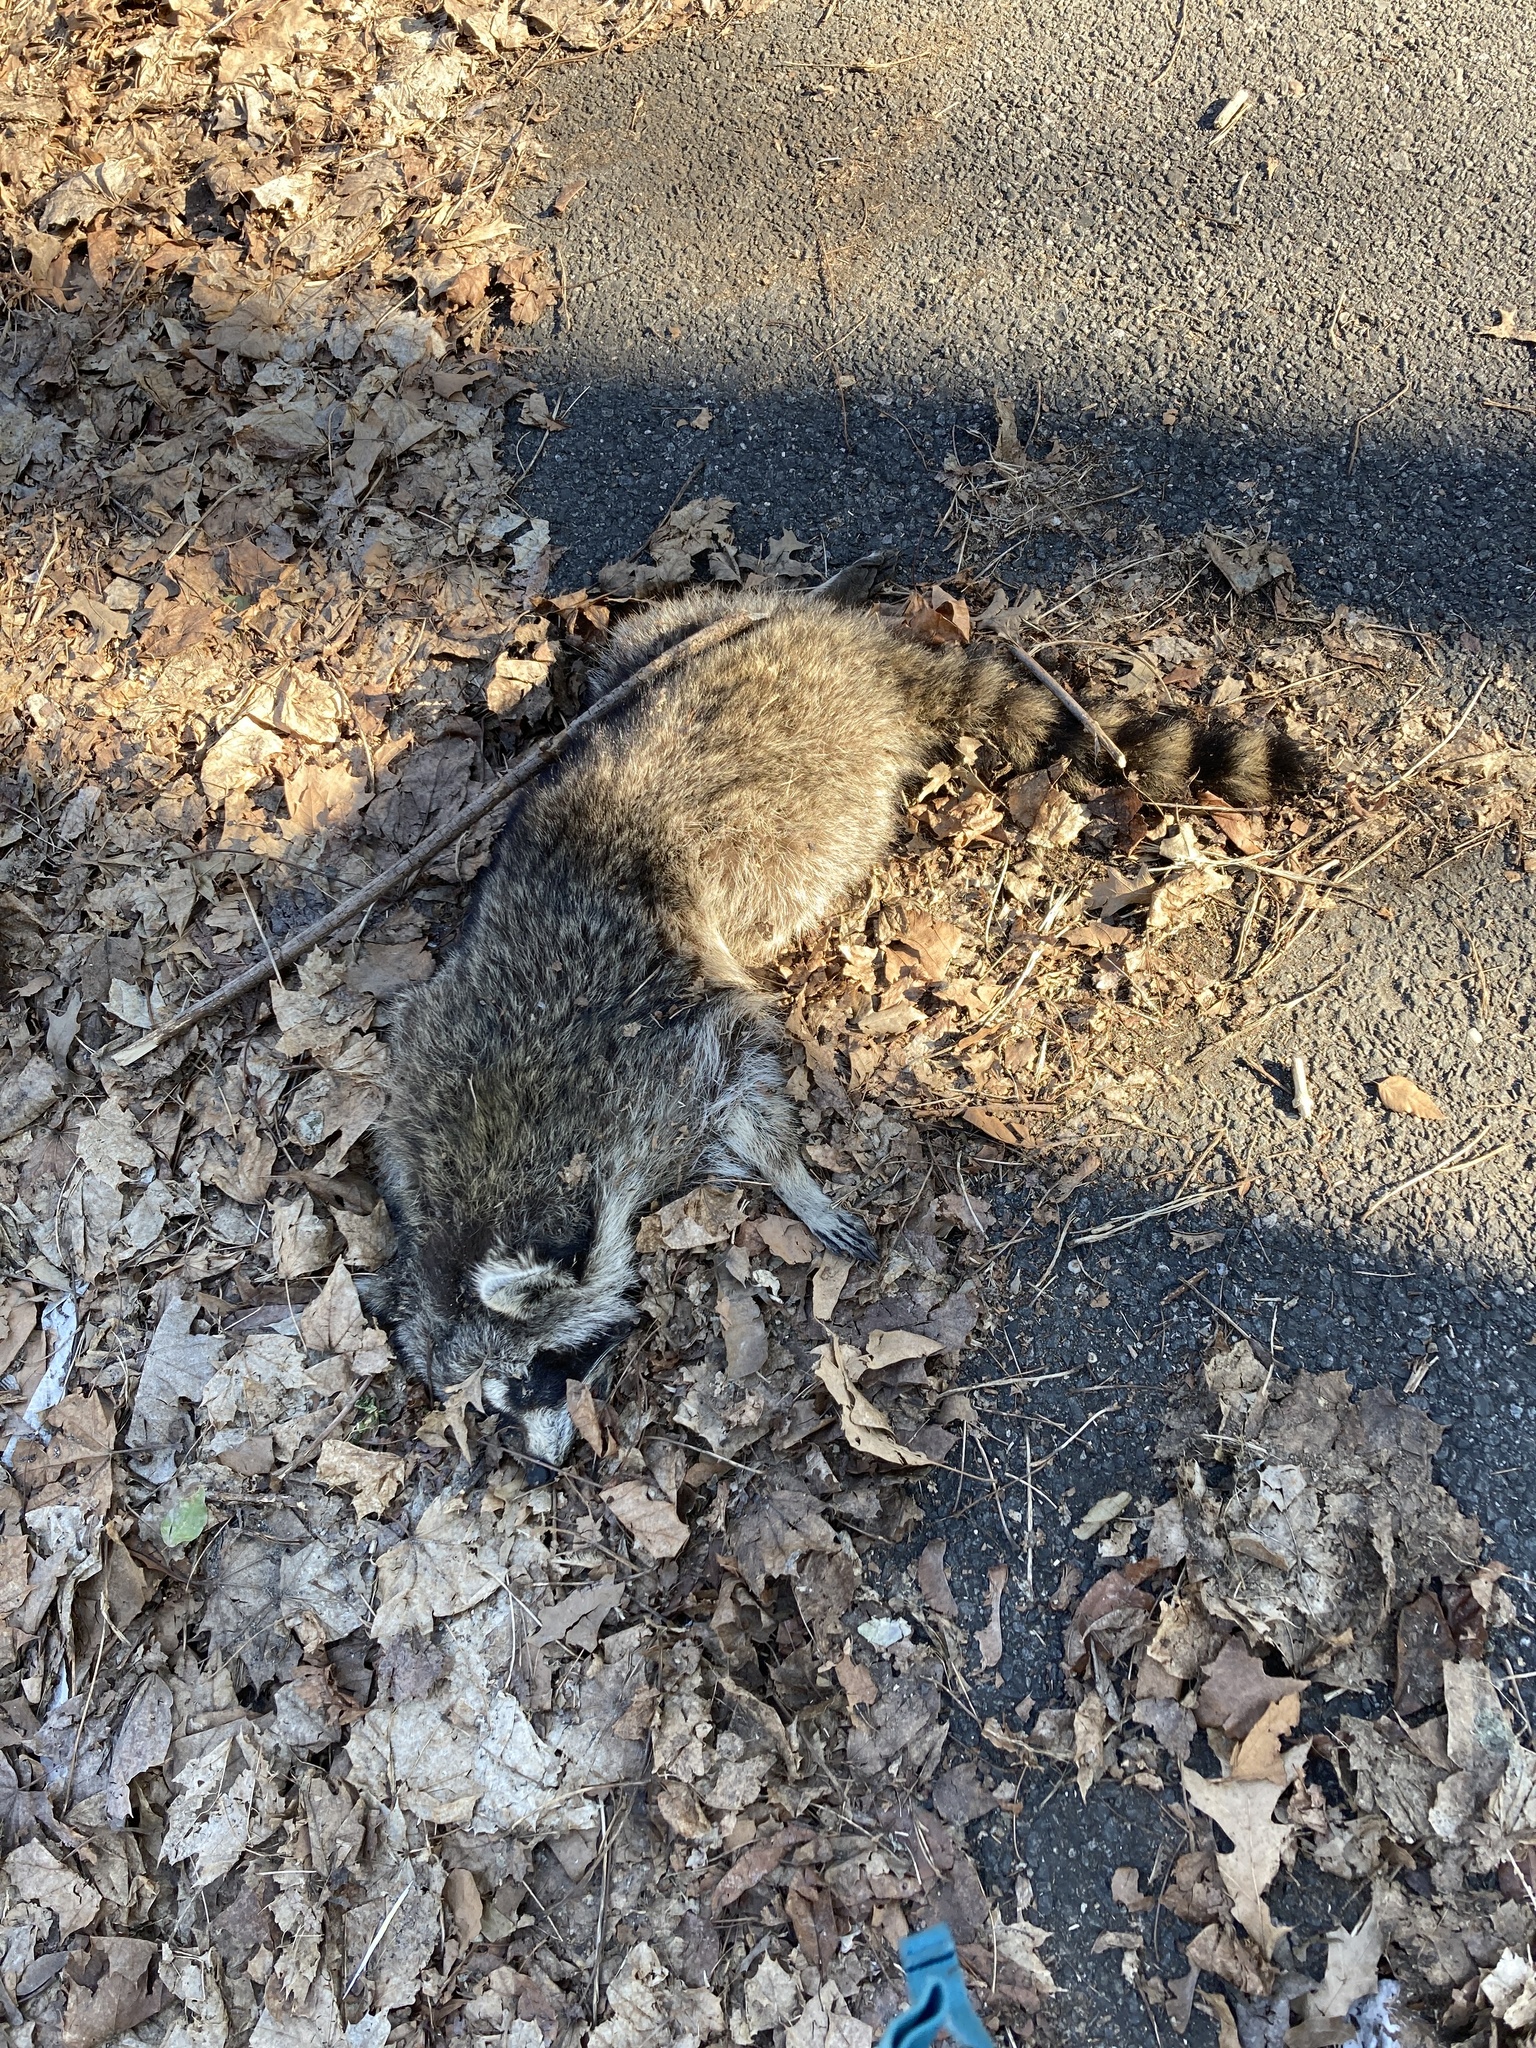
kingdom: Animalia
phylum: Chordata
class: Mammalia
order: Carnivora
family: Procyonidae
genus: Procyon
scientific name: Procyon lotor
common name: Raccoon
